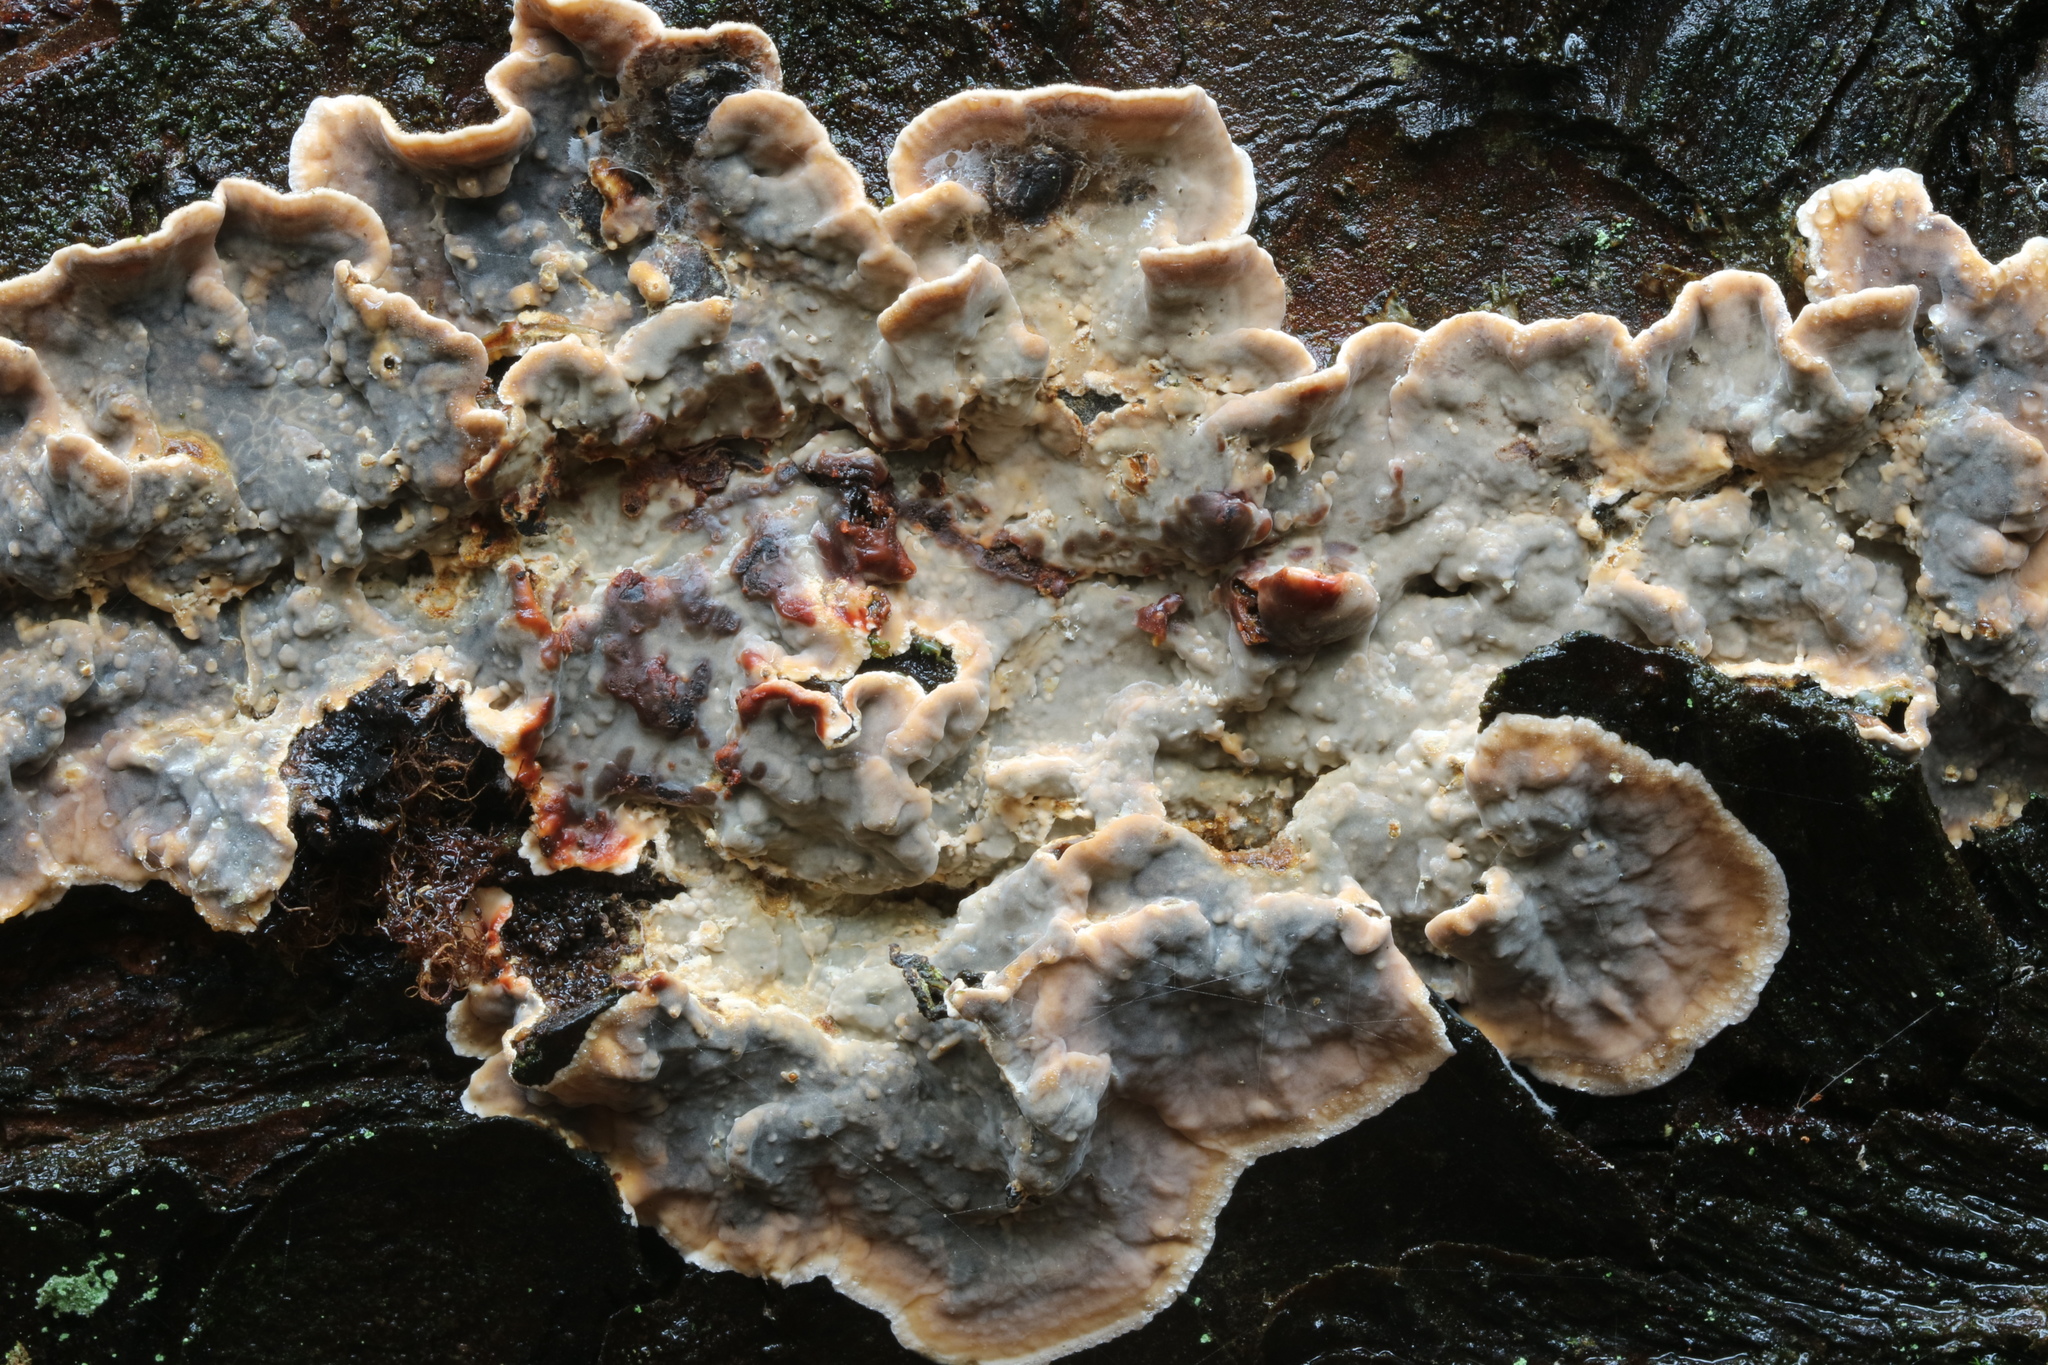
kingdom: Fungi
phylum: Basidiomycota
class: Agaricomycetes
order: Russulales
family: Stereaceae
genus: Stereum
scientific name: Stereum sanguinolentum
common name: Bleeding conifer crust
